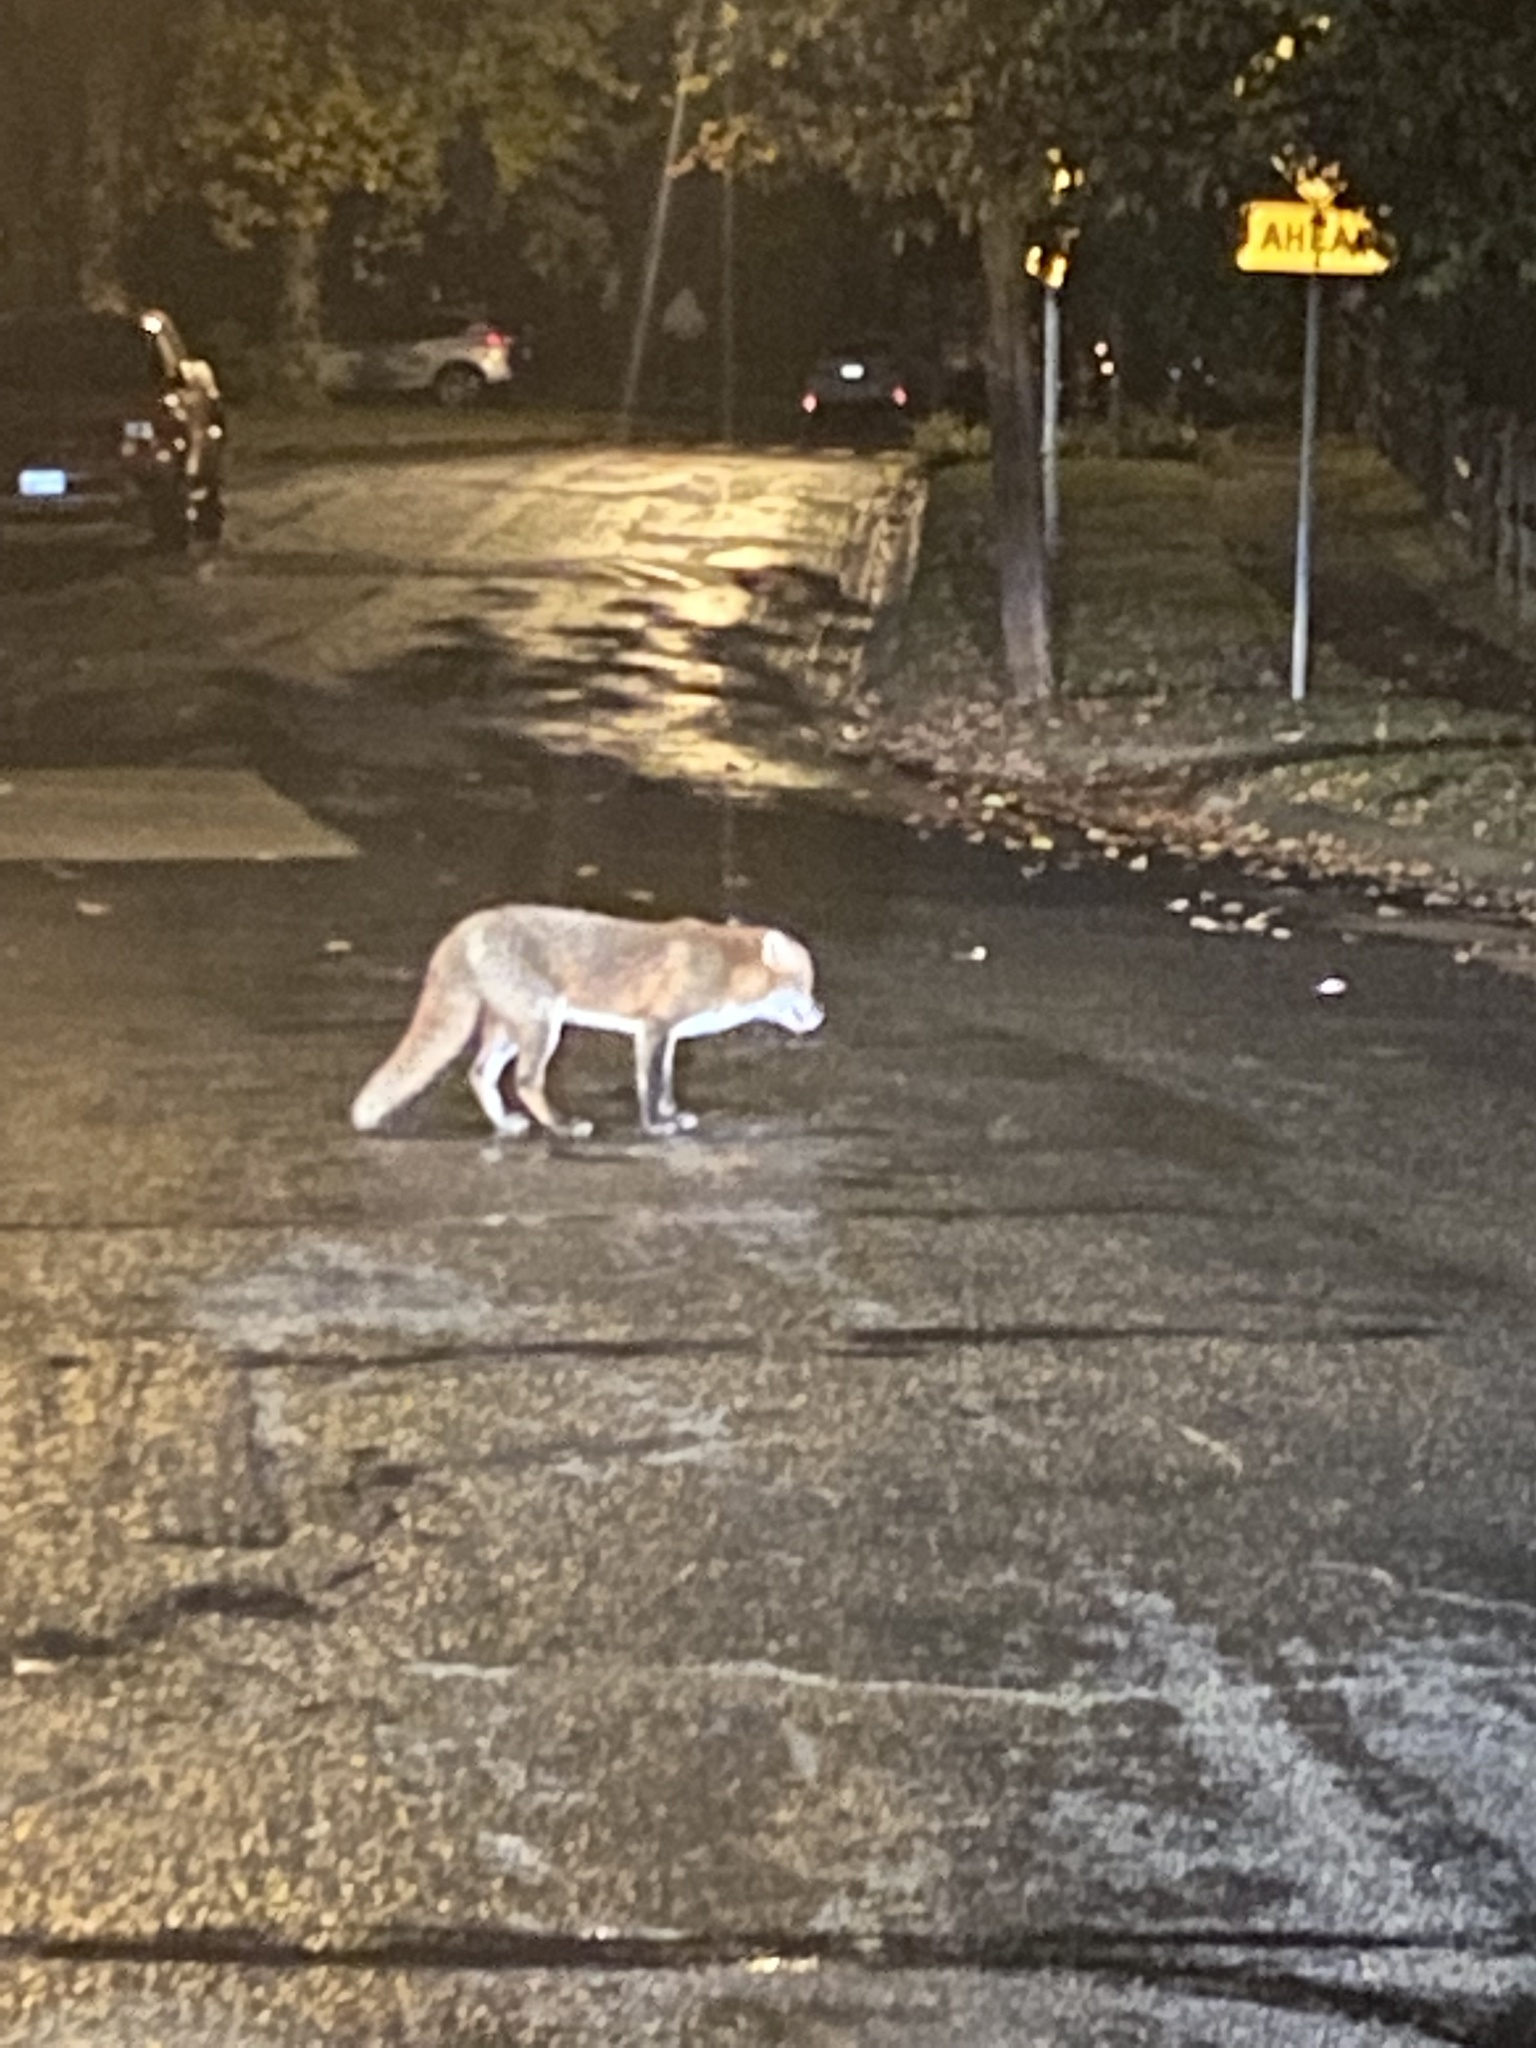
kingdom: Animalia
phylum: Chordata
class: Mammalia
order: Carnivora
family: Canidae
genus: Vulpes
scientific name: Vulpes vulpes
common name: Red fox
